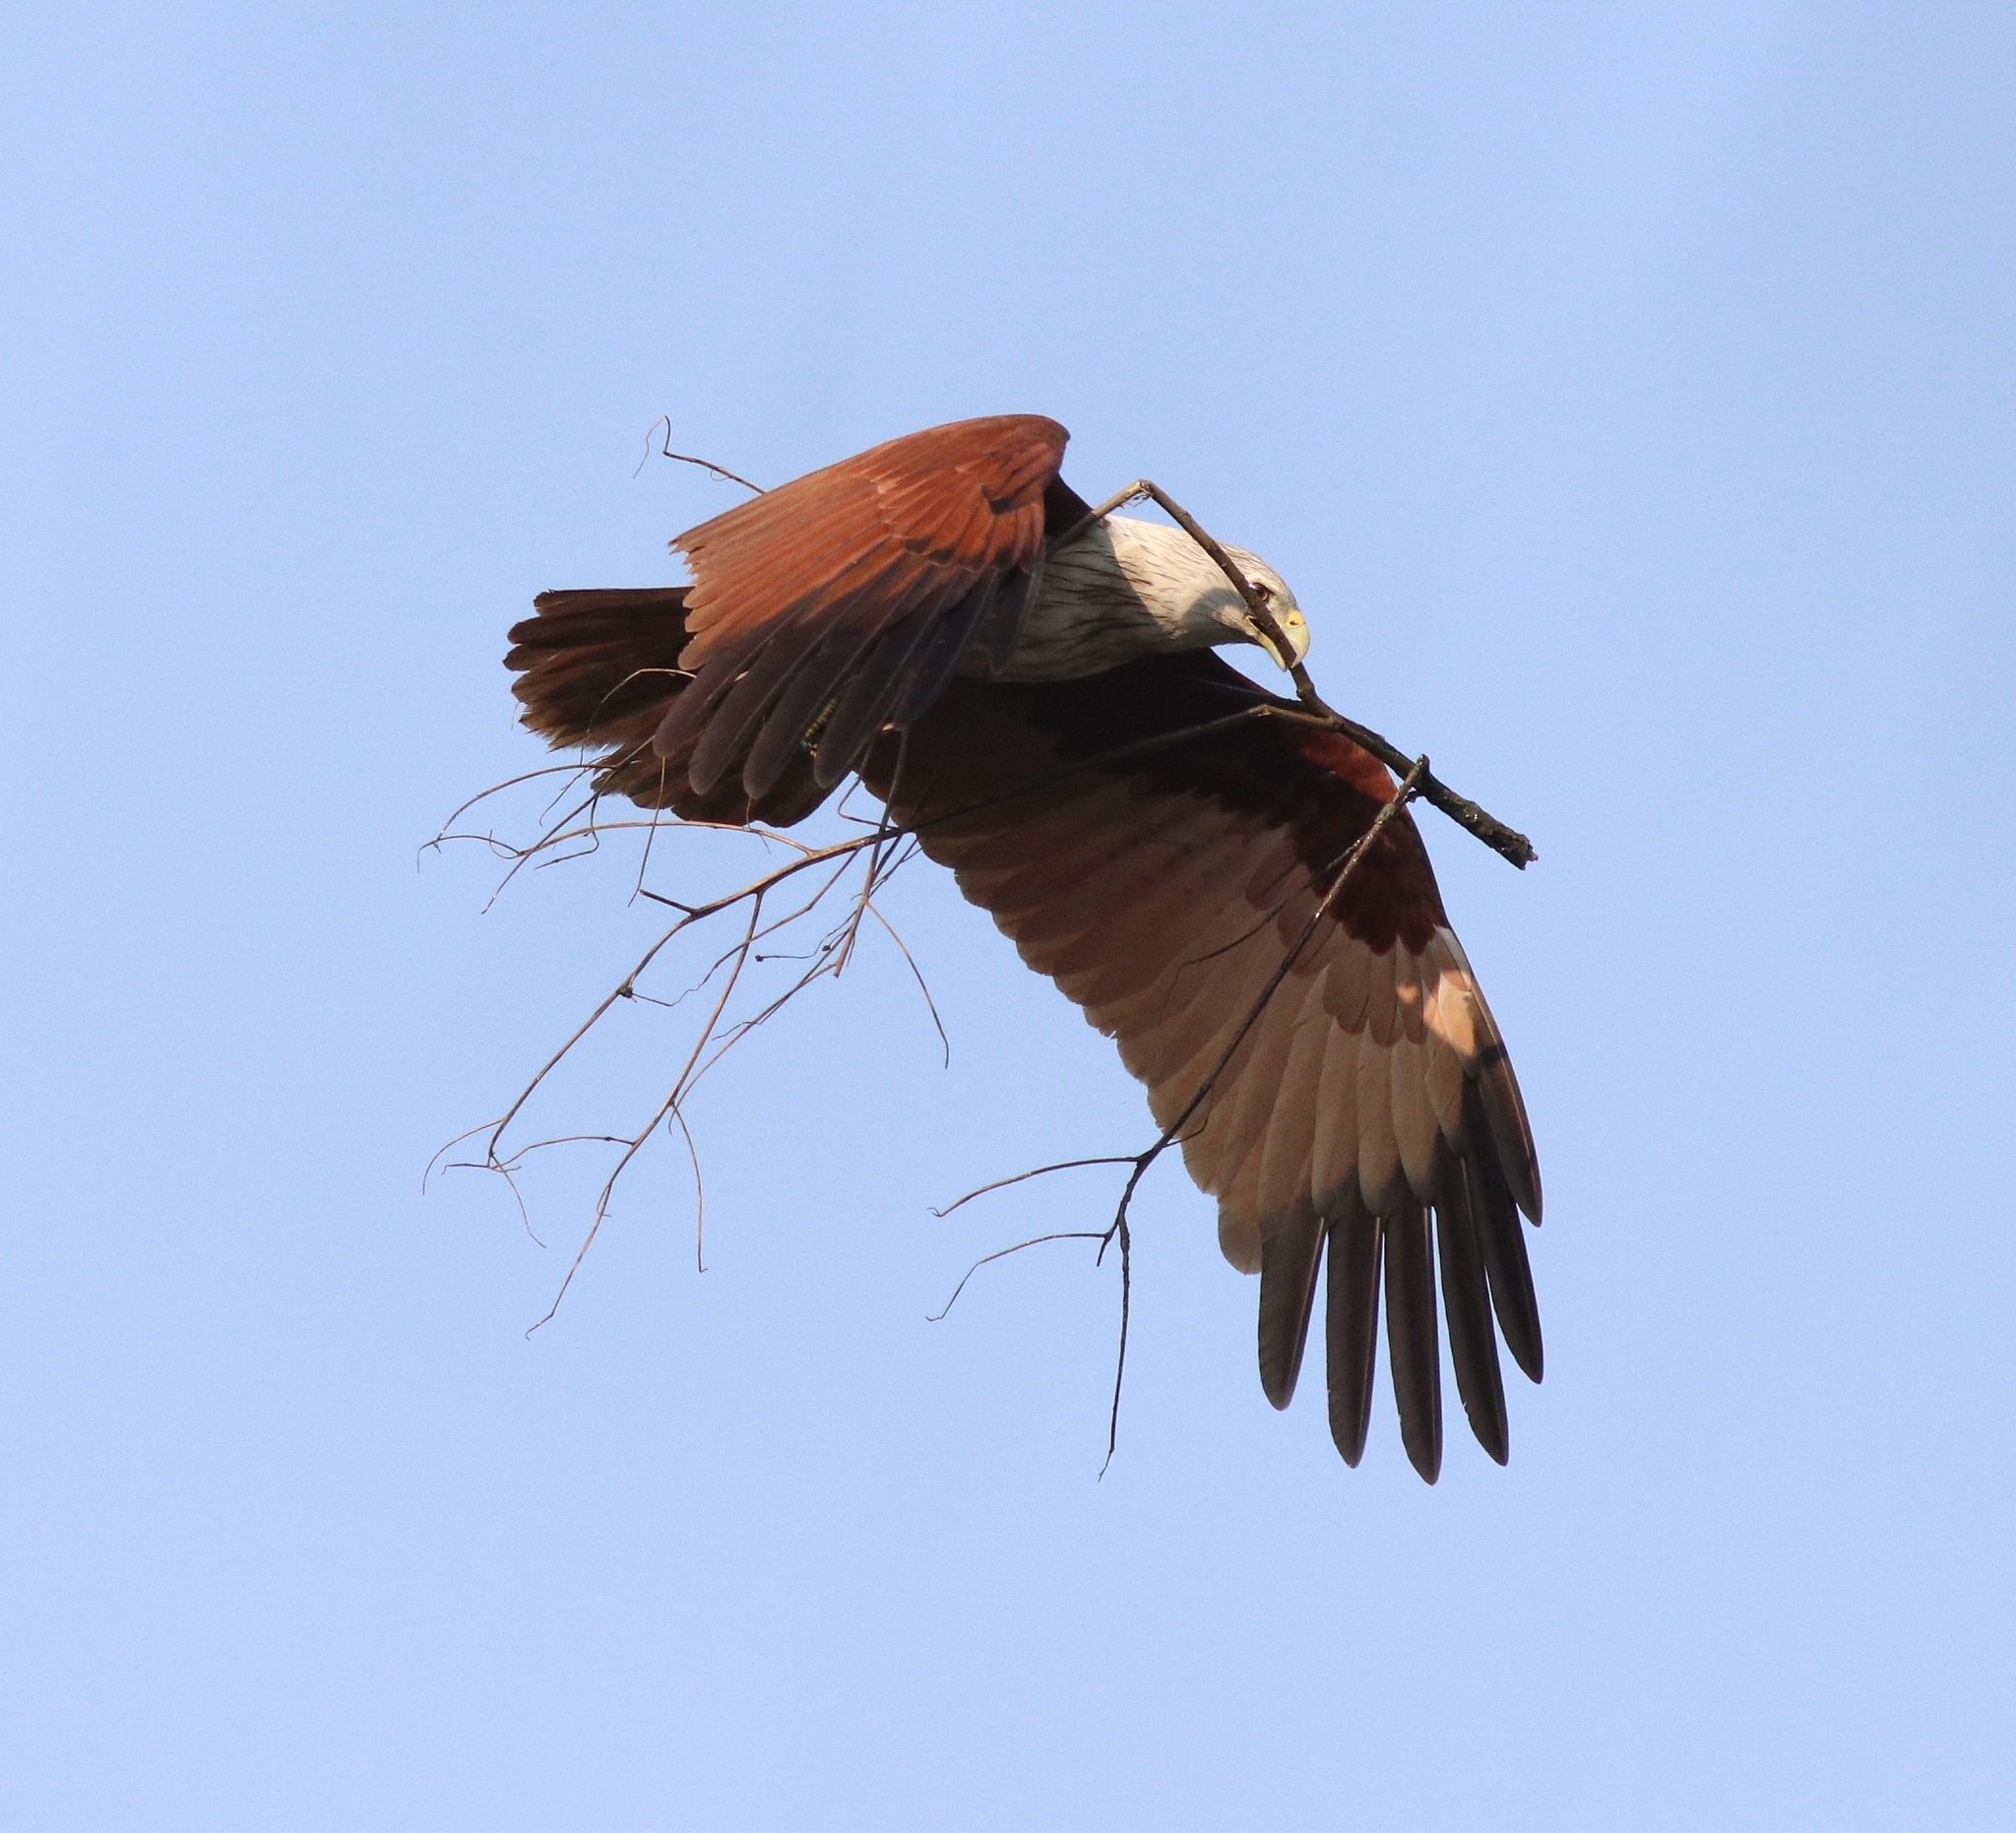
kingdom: Animalia
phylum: Chordata
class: Aves
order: Accipitriformes
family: Accipitridae
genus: Haliastur
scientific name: Haliastur indus
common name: Brahminy kite
